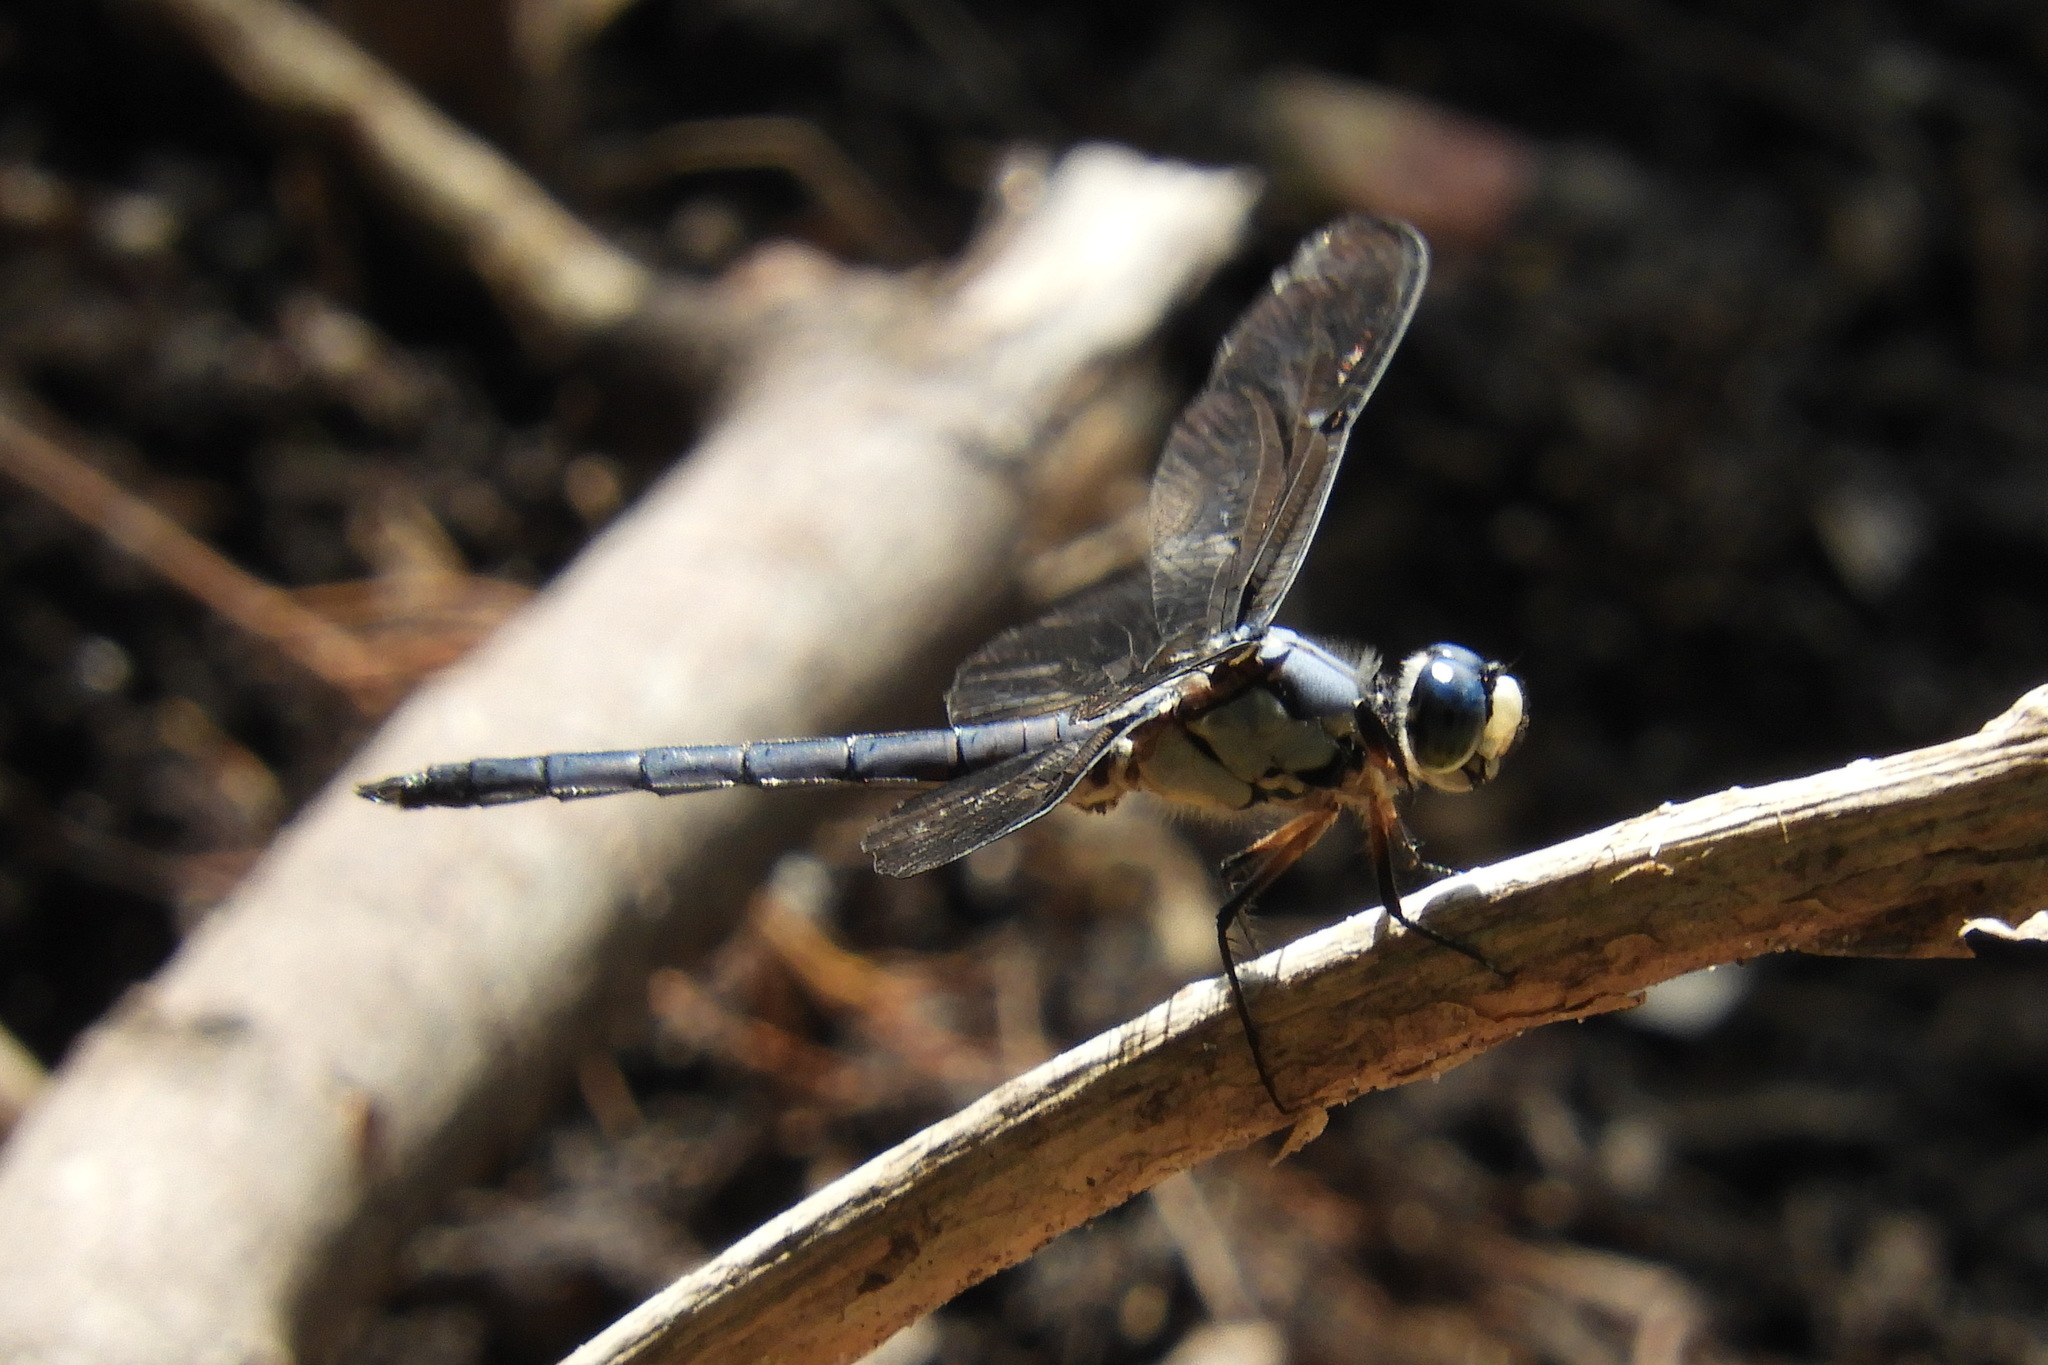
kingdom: Animalia
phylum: Arthropoda
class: Insecta
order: Odonata
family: Libellulidae
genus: Libellula
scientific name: Libellula vibrans
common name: Great blue skimmer
